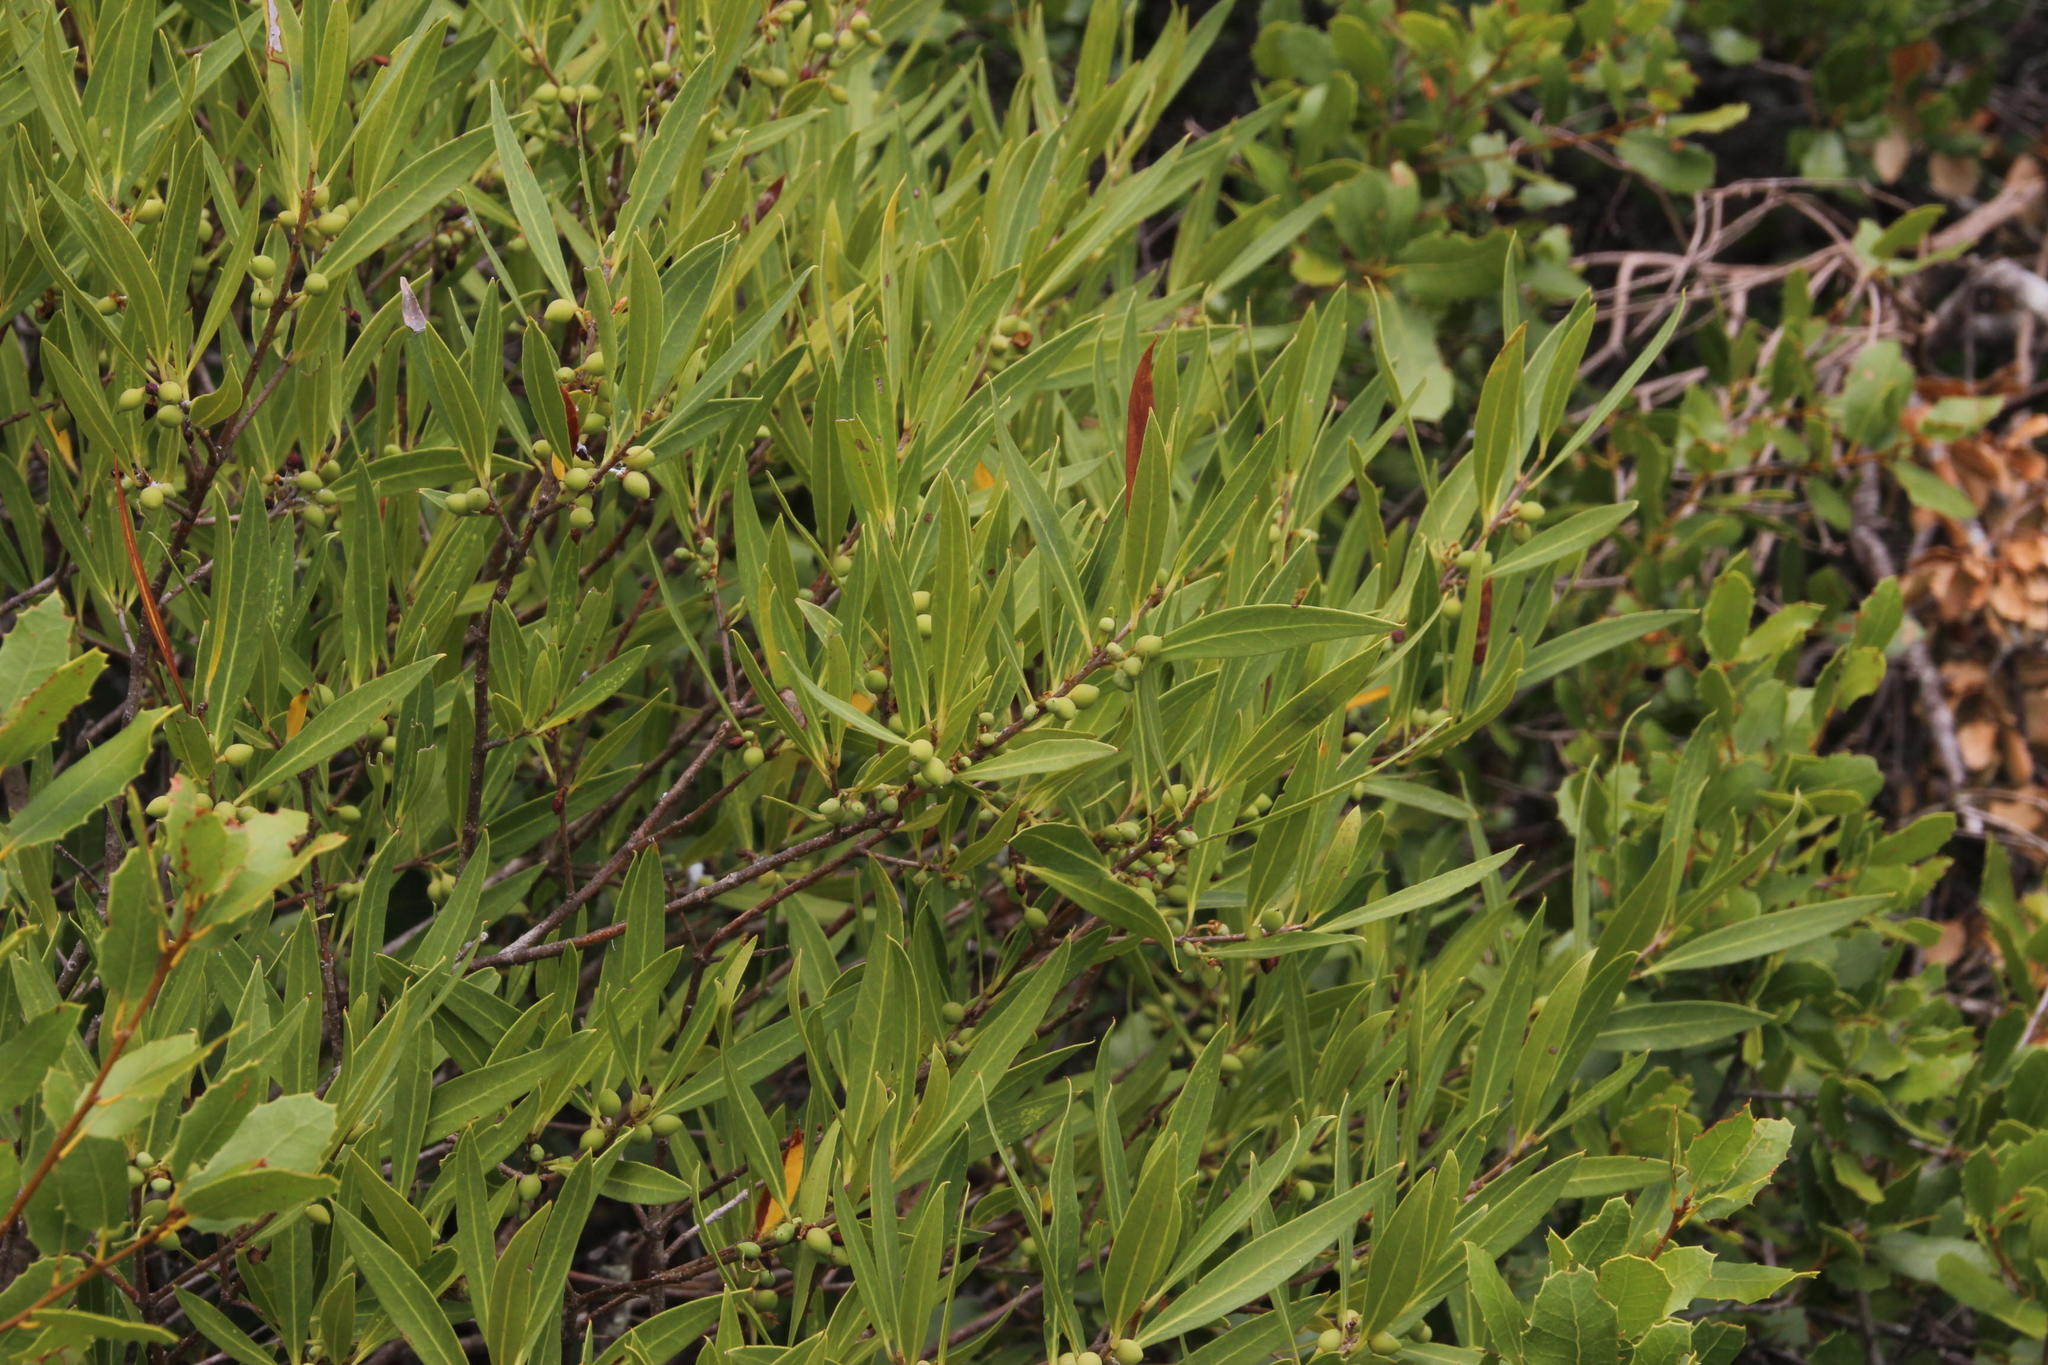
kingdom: Plantae
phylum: Tracheophyta
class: Magnoliopsida
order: Lamiales
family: Oleaceae
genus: Phillyrea
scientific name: Phillyrea angustifolia
